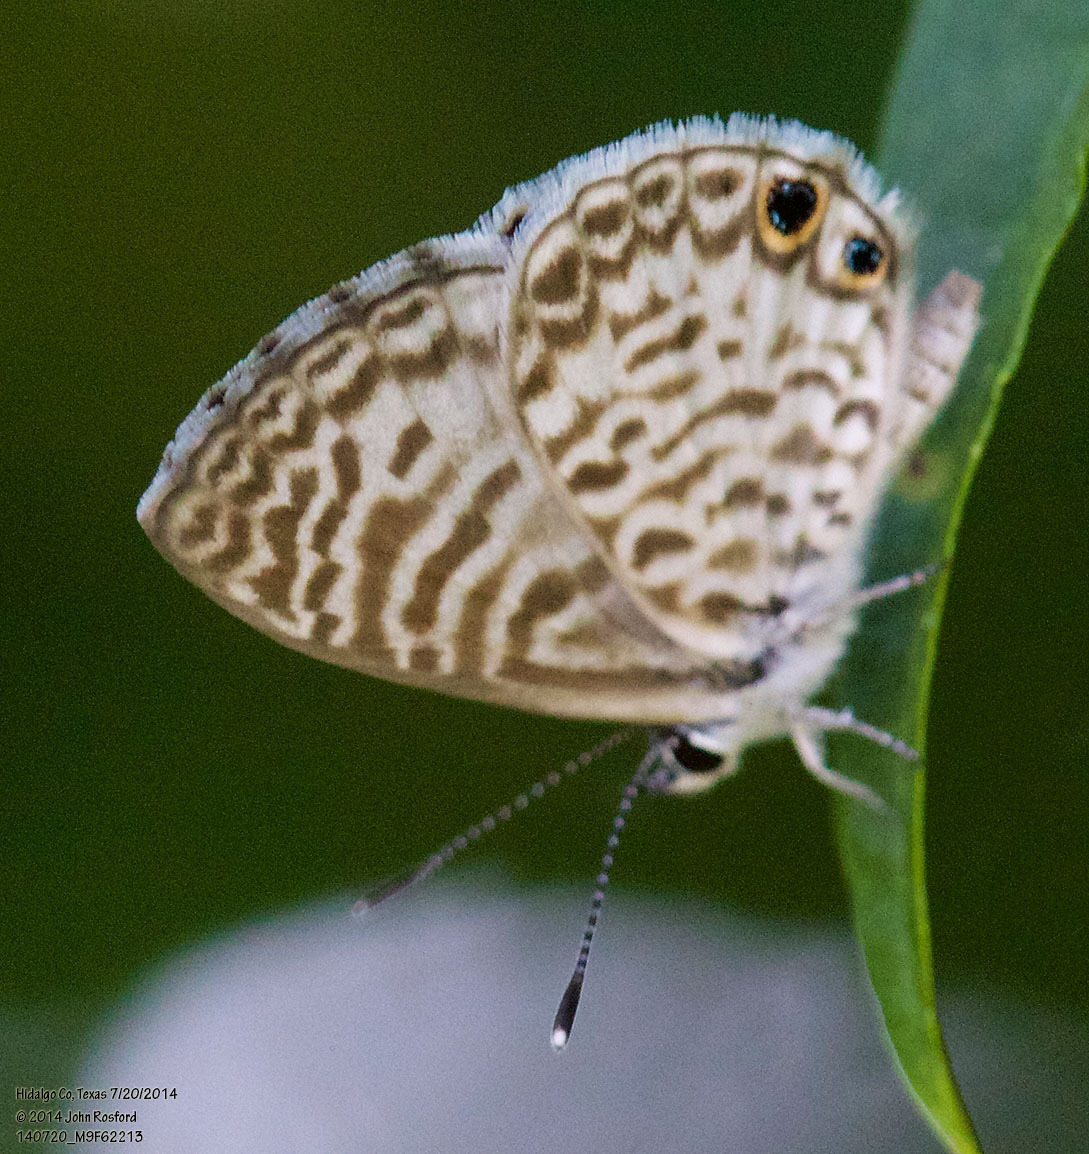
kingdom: Animalia
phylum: Arthropoda
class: Insecta
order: Lepidoptera
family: Lycaenidae
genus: Leptotes
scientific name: Leptotes cassius
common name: Cassius blue
